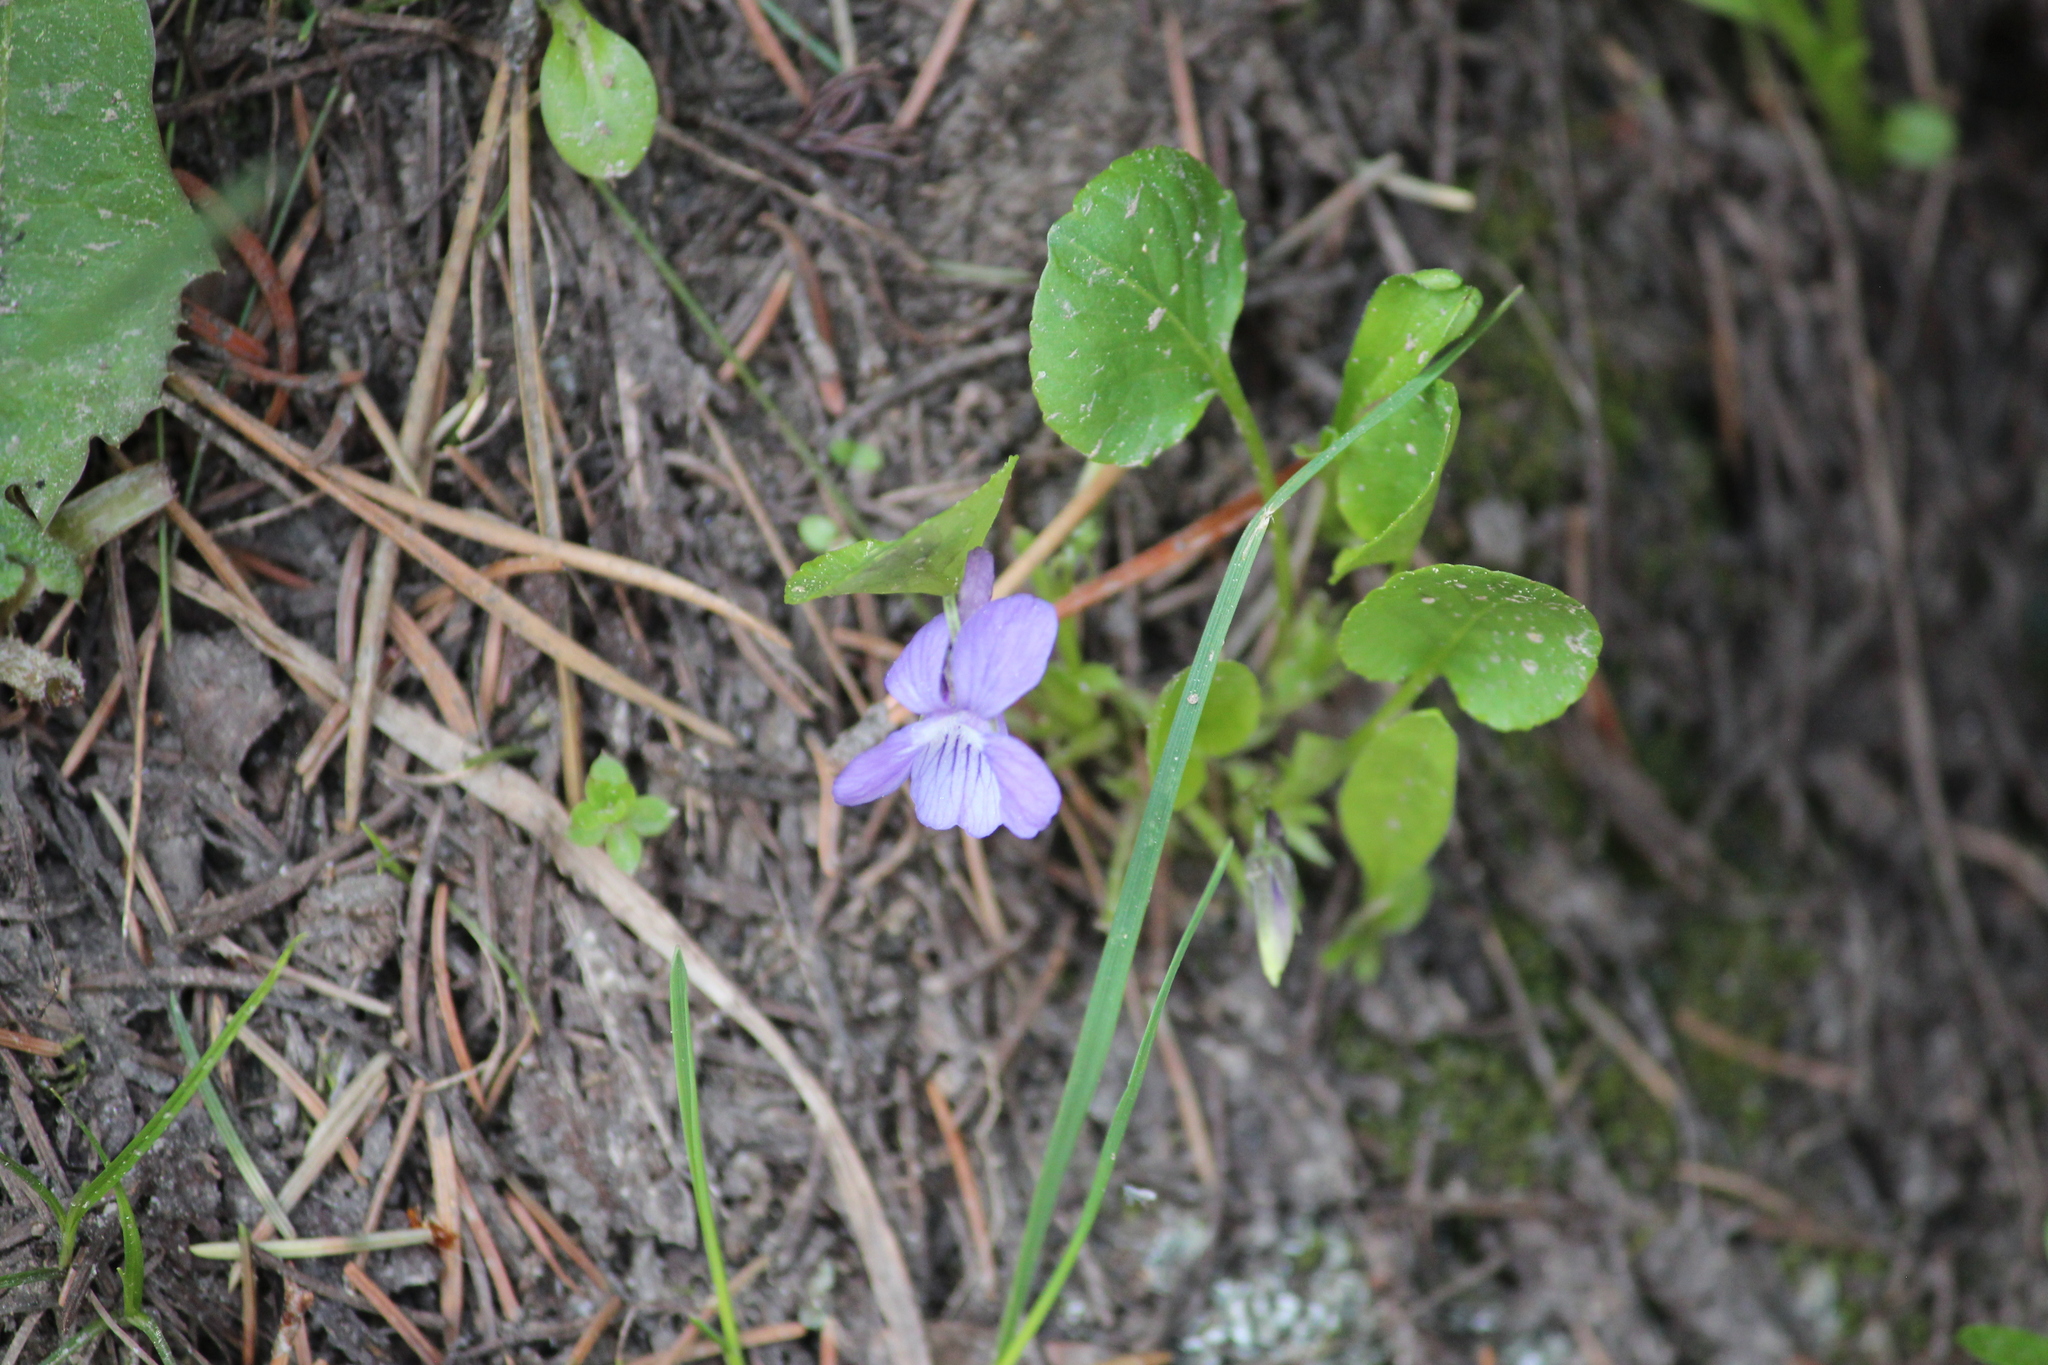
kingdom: Plantae
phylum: Tracheophyta
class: Magnoliopsida
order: Malpighiales
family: Violaceae
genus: Viola
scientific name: Viola adunca
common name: Sand violet
